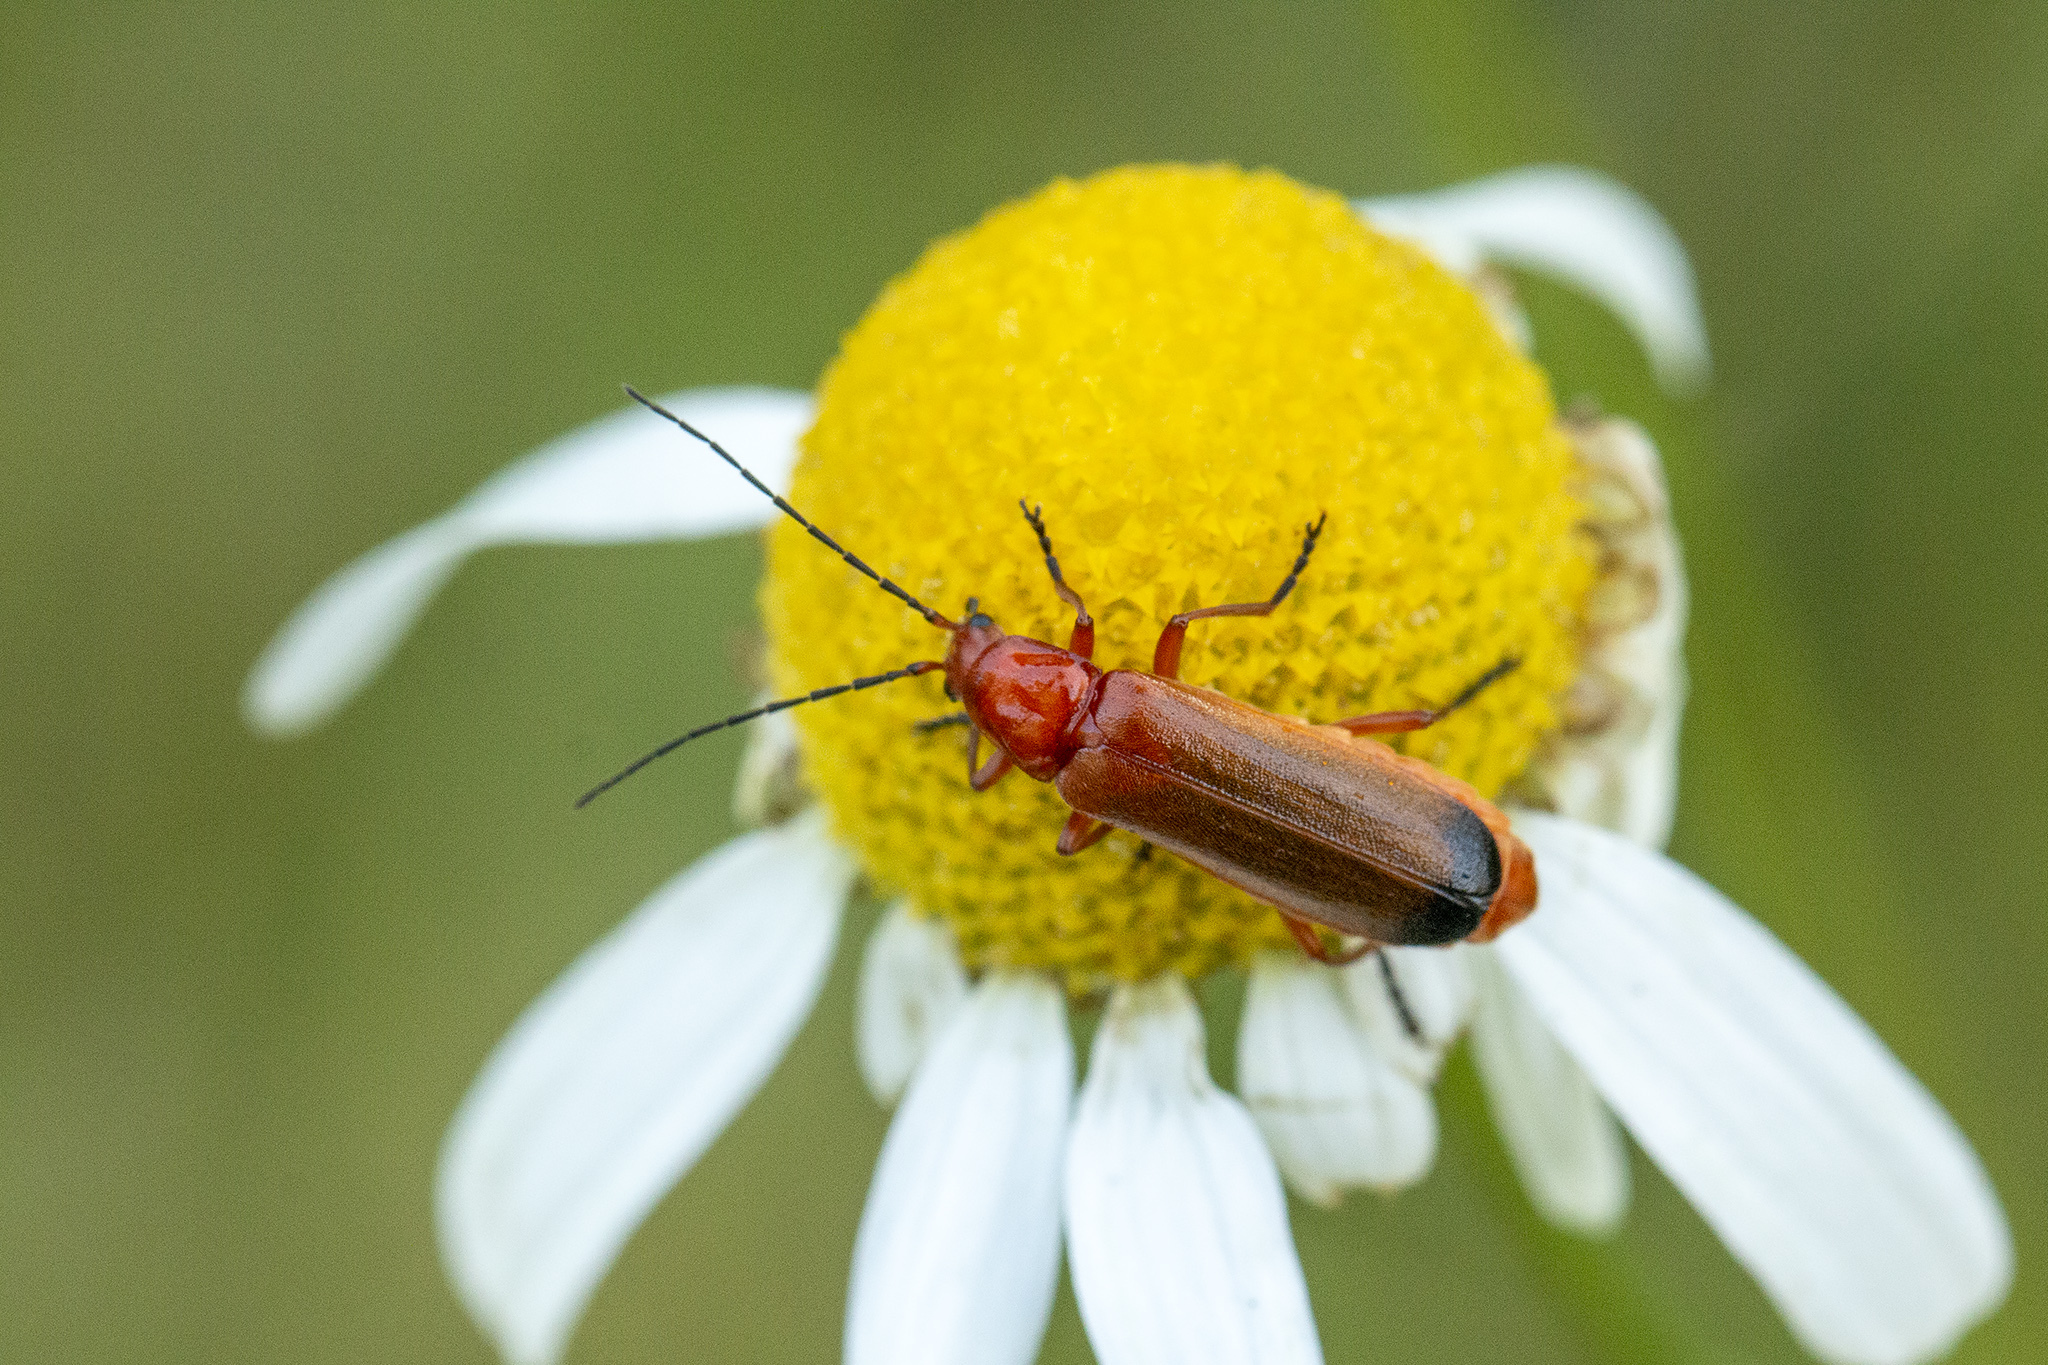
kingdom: Animalia
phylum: Arthropoda
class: Insecta
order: Coleoptera
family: Cantharidae
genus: Rhagonycha
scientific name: Rhagonycha fulva
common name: Common red soldier beetle
